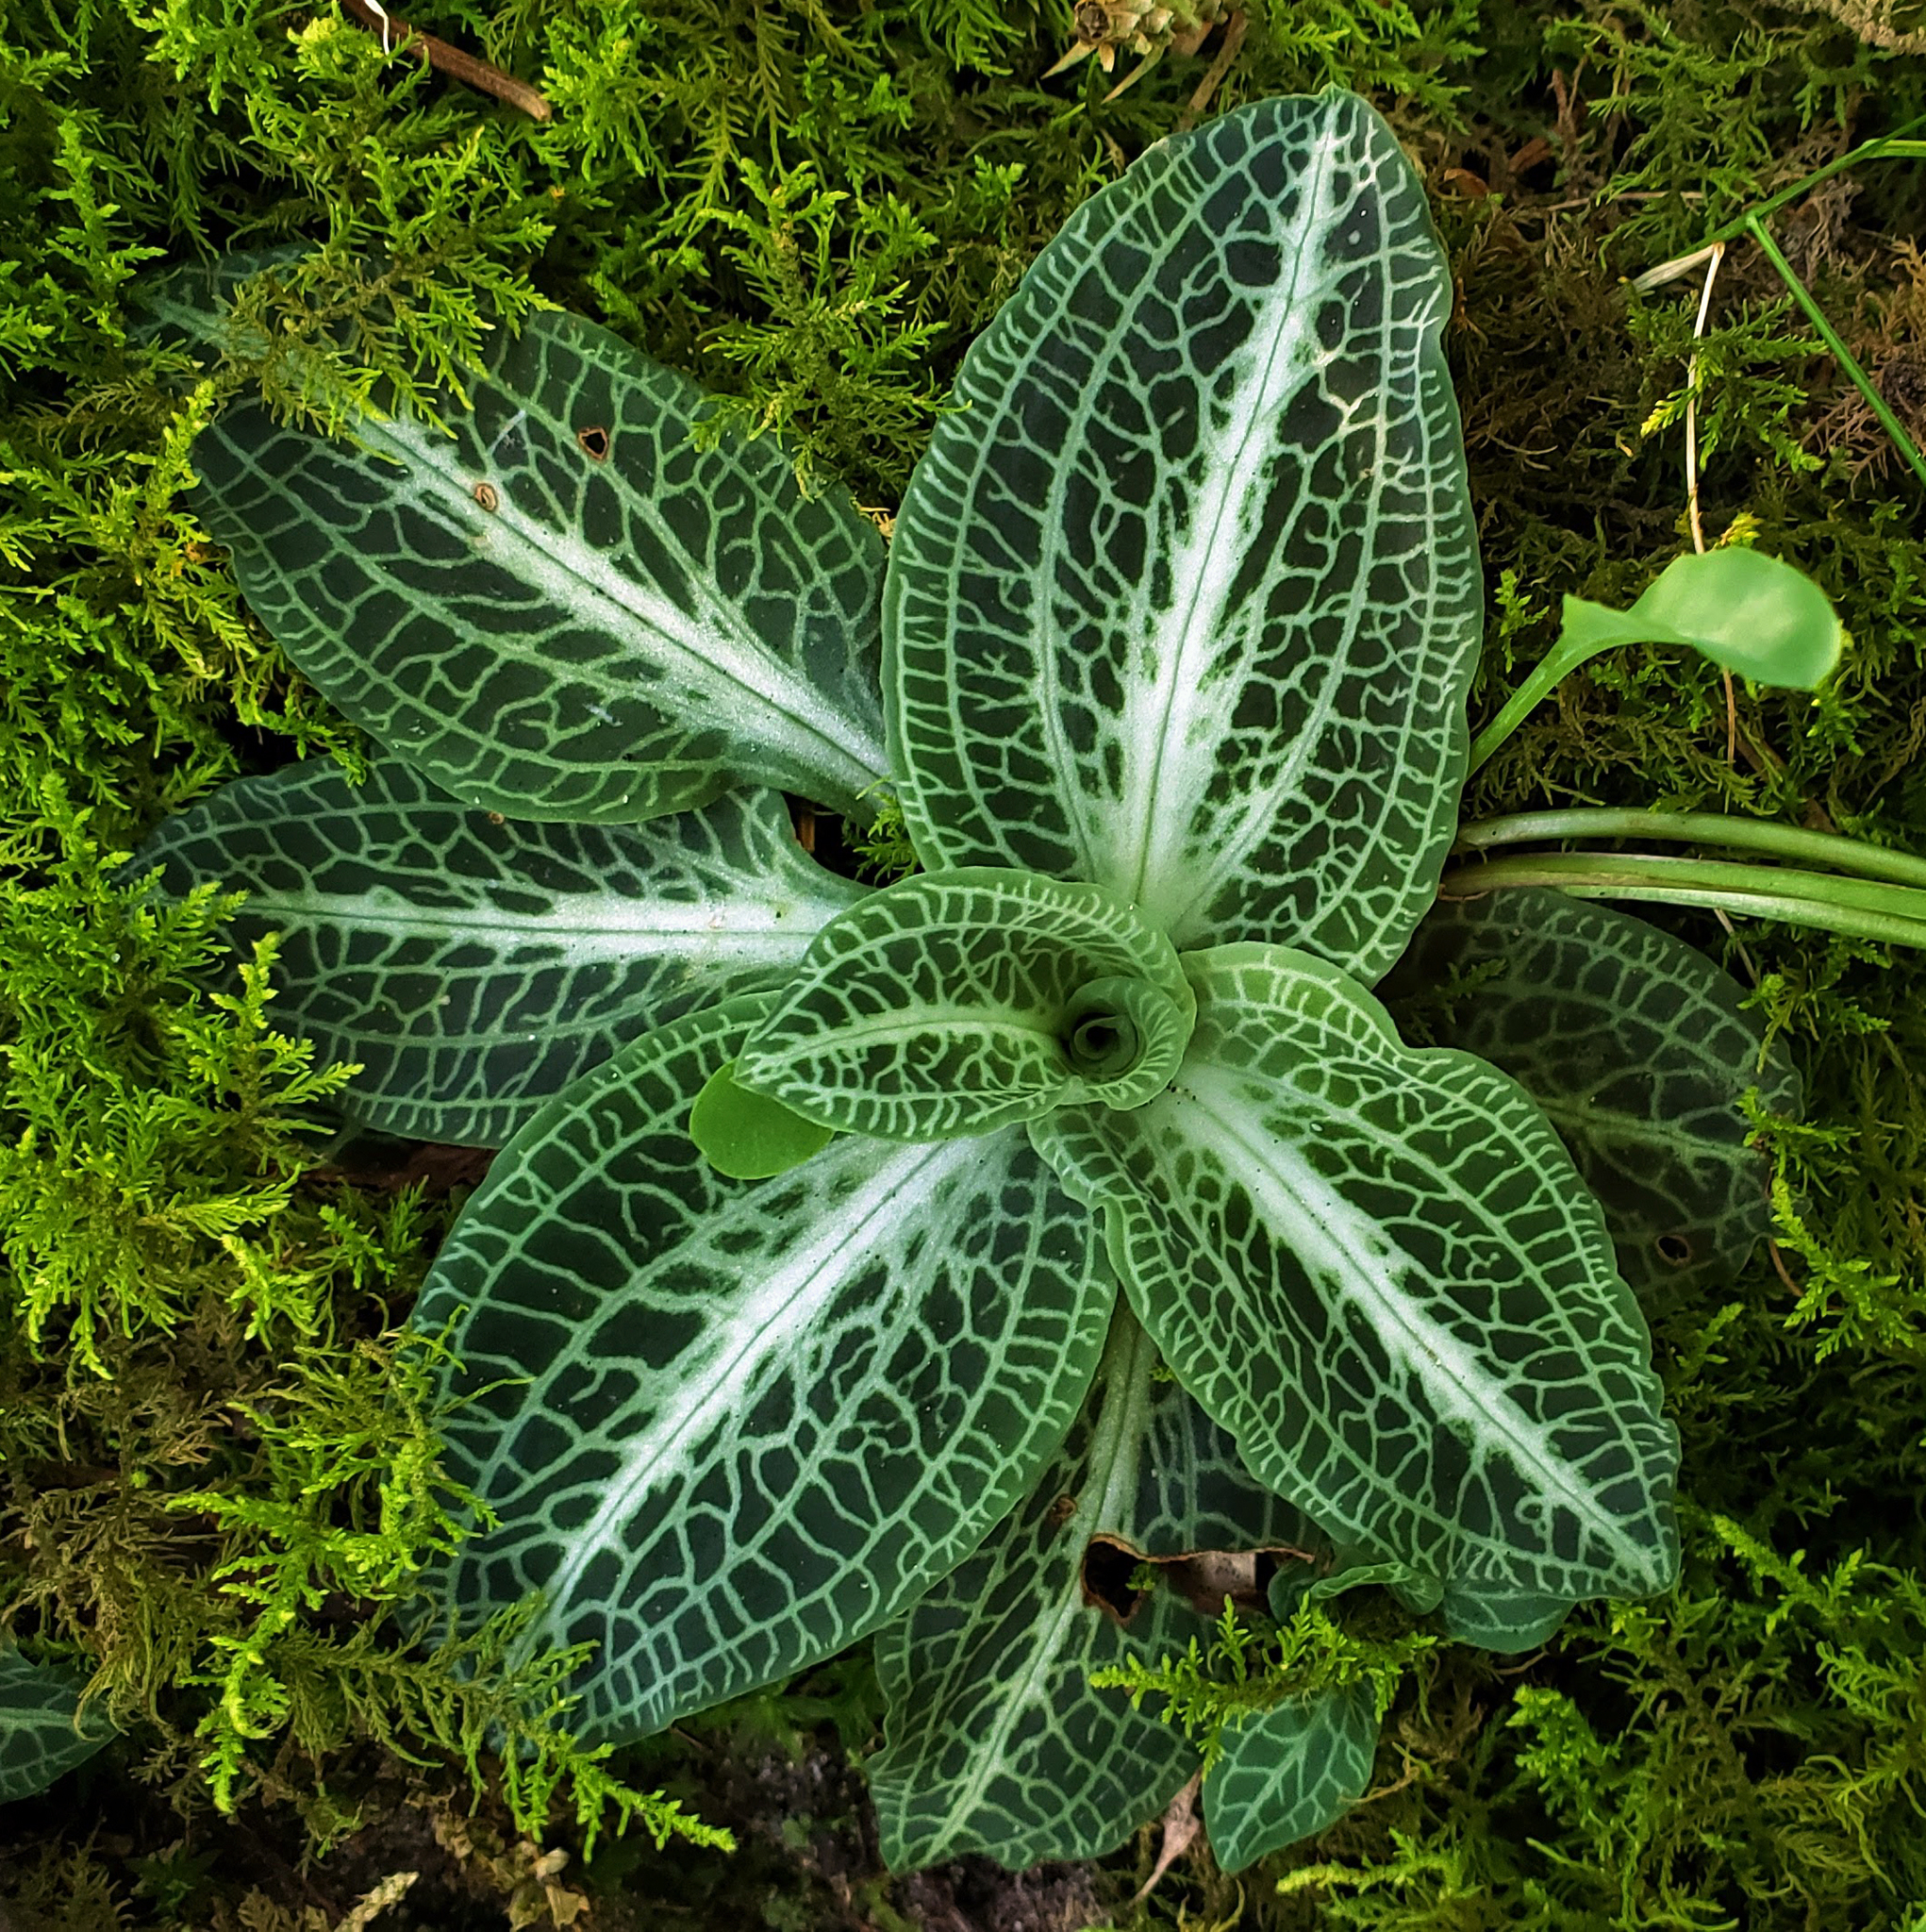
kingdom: Plantae
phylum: Tracheophyta
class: Liliopsida
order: Asparagales
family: Orchidaceae
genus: Goodyera
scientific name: Goodyera pubescens
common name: Downy rattlesnake-plantain
